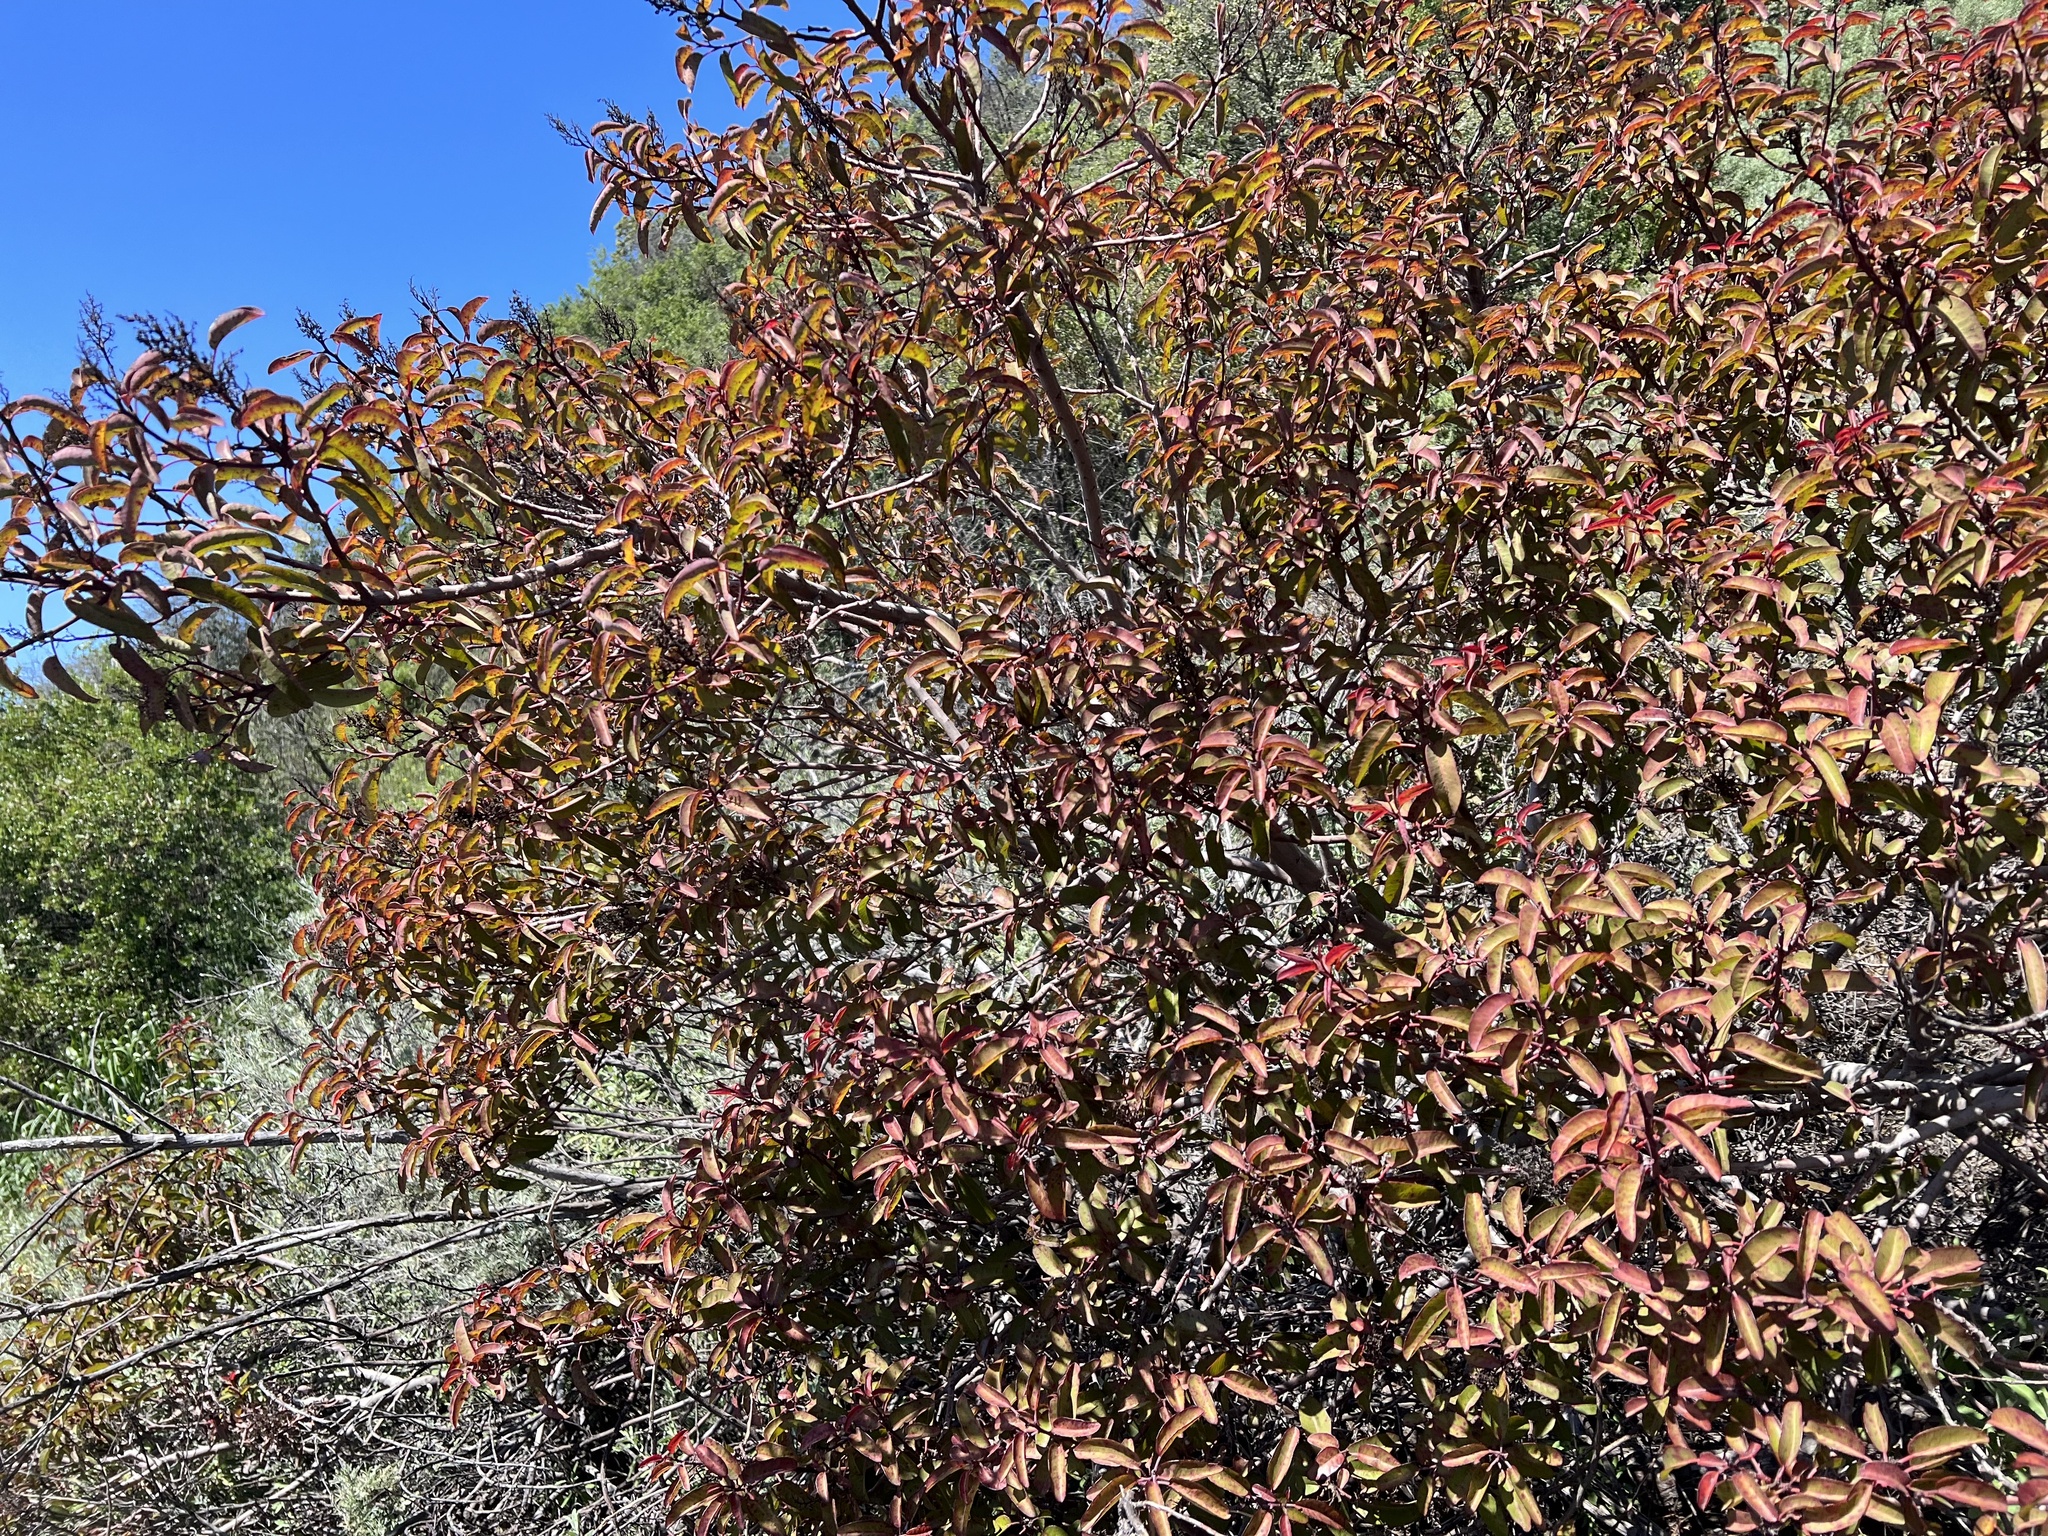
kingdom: Plantae
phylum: Tracheophyta
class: Magnoliopsida
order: Sapindales
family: Anacardiaceae
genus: Malosma
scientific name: Malosma laurina
